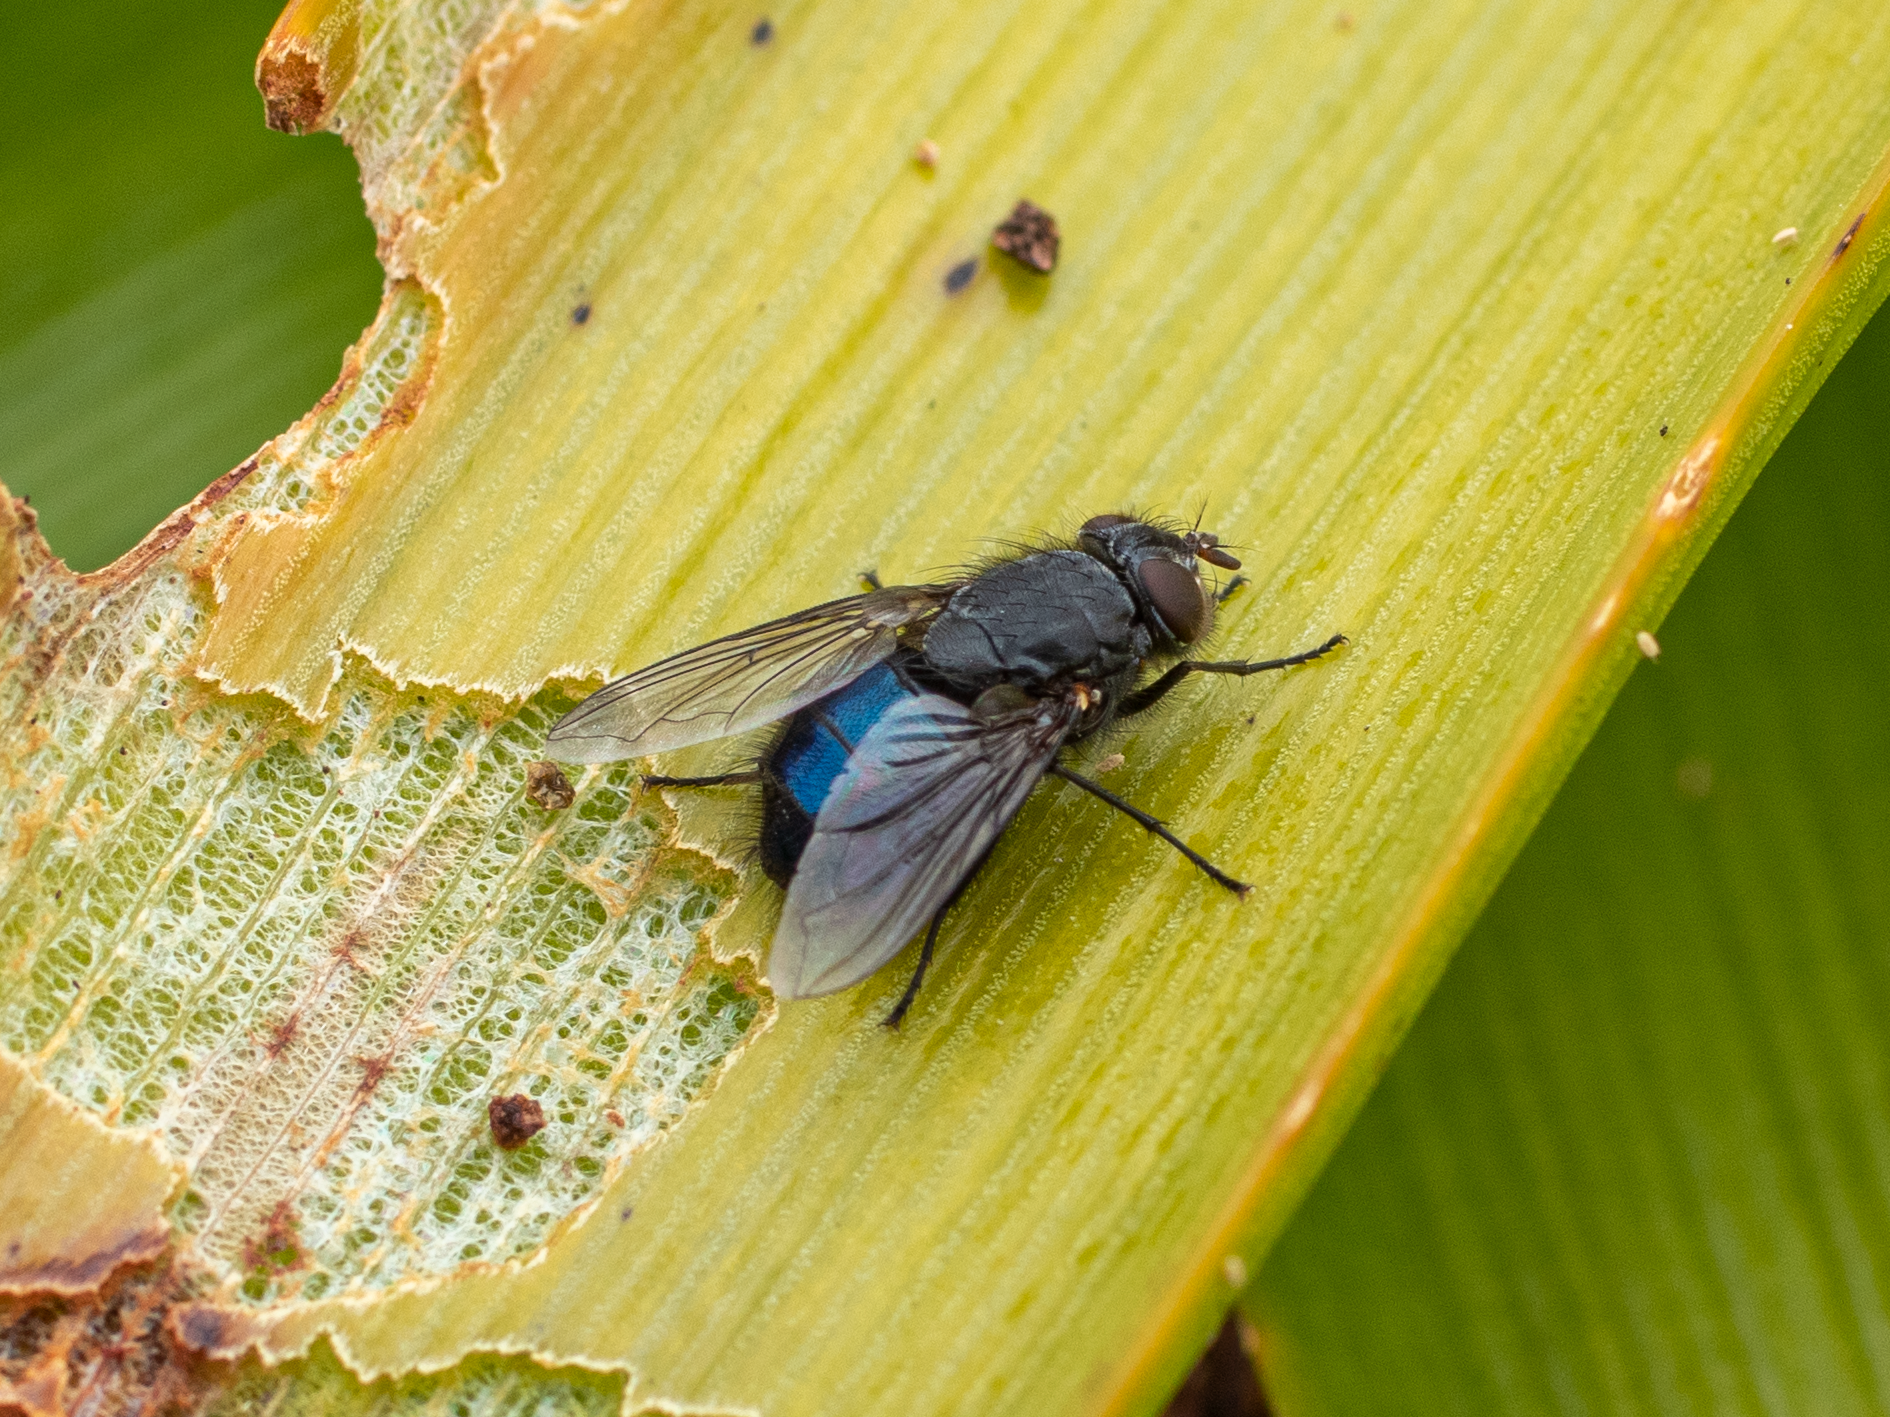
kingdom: Animalia
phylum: Arthropoda
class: Insecta
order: Diptera
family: Calliphoridae
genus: Calliphora
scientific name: Calliphora quadrimaculata
